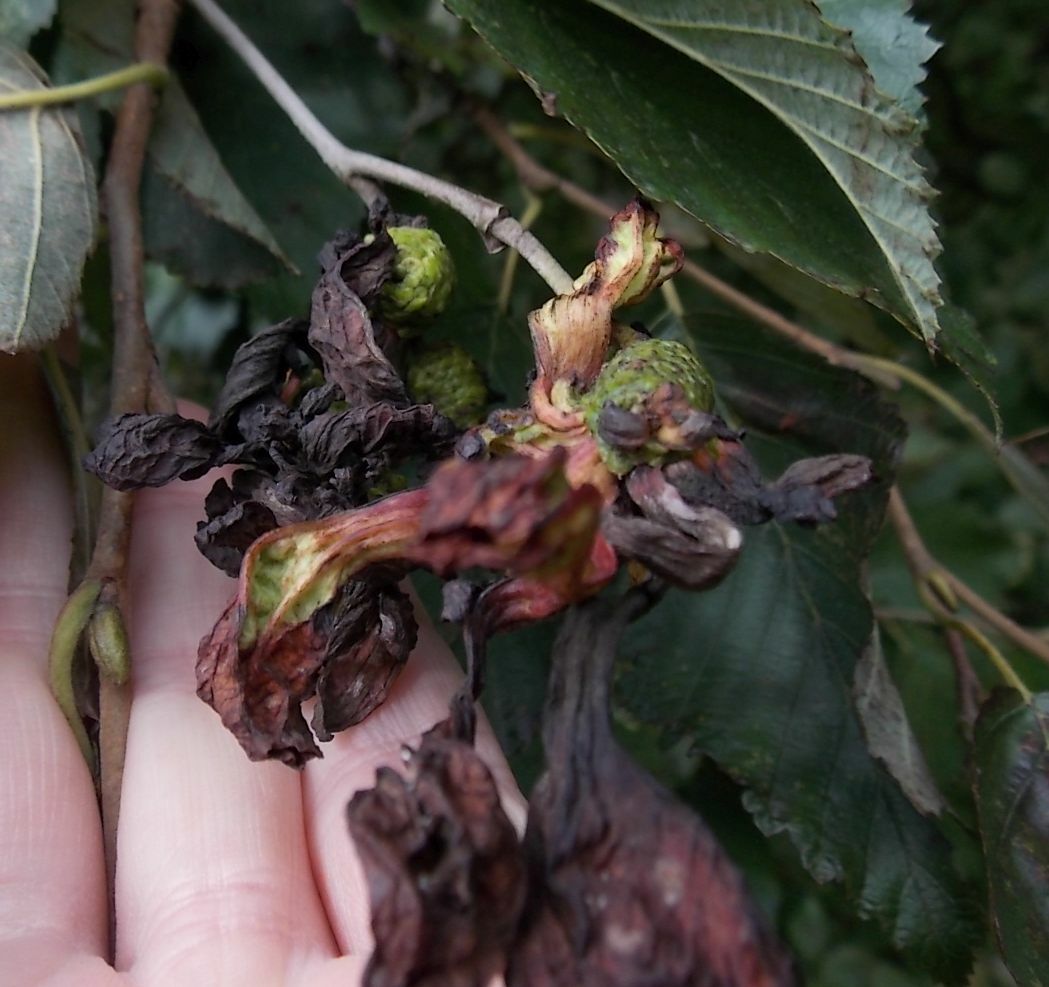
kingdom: Fungi
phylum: Ascomycota
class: Taphrinomycetes
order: Taphrinales
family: Taphrinaceae
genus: Taphrina
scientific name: Taphrina alni
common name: Alder tongue
